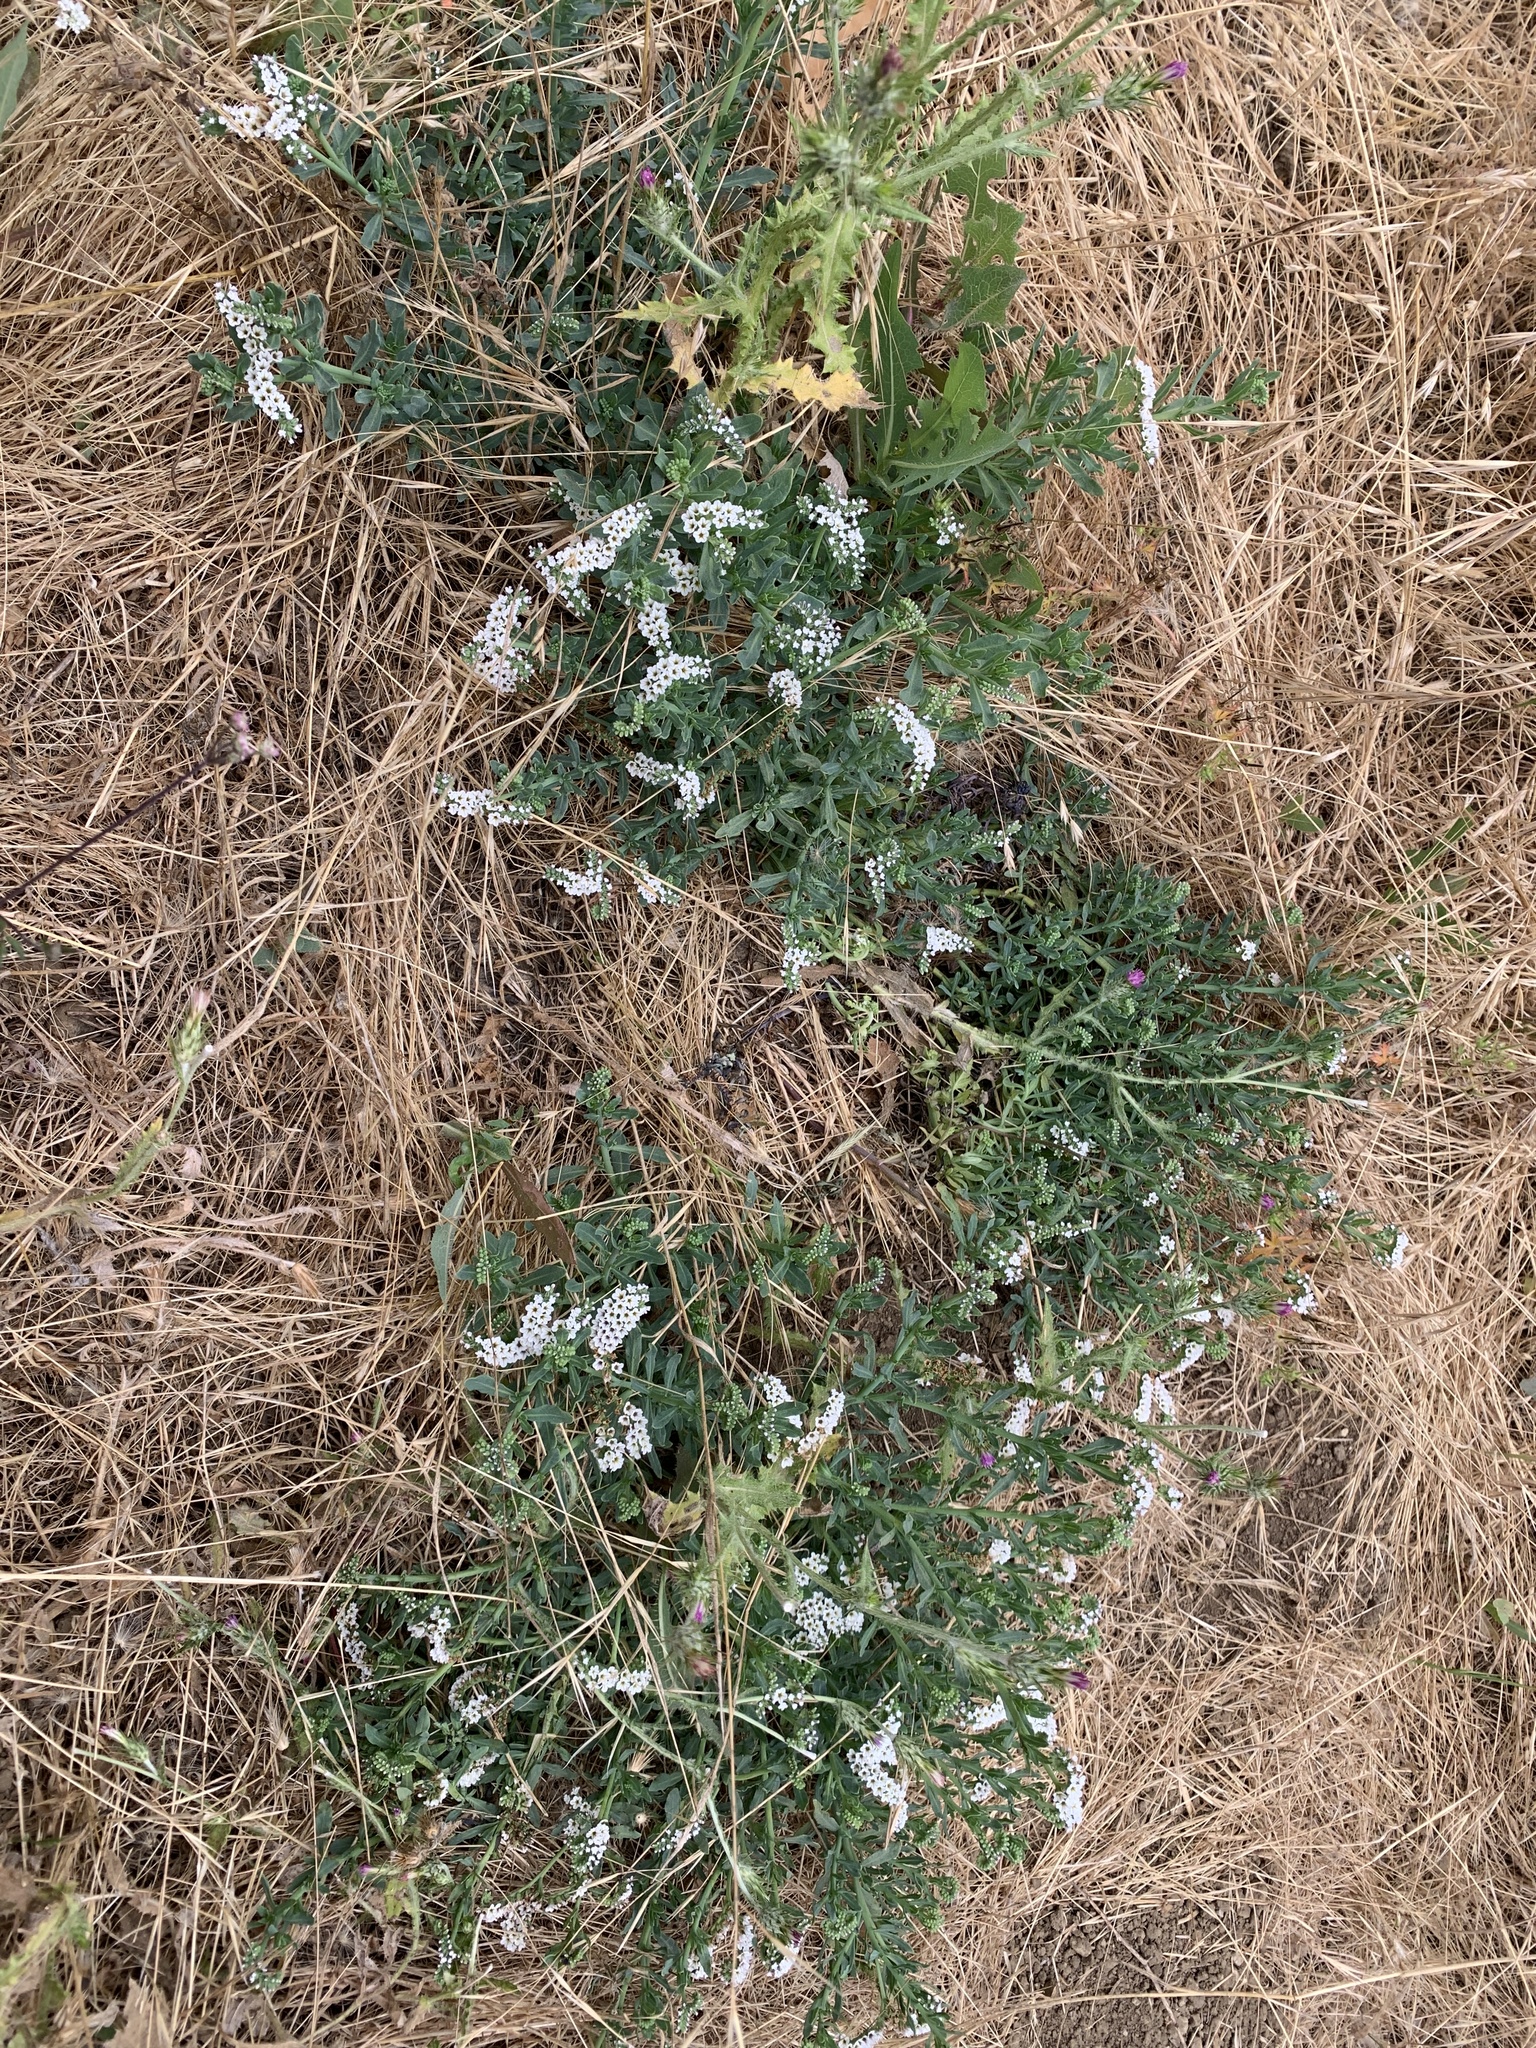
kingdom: Plantae
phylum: Tracheophyta
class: Magnoliopsida
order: Boraginales
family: Heliotropiaceae
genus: Heliotropium
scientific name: Heliotropium curassavicum
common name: Seaside heliotrope
